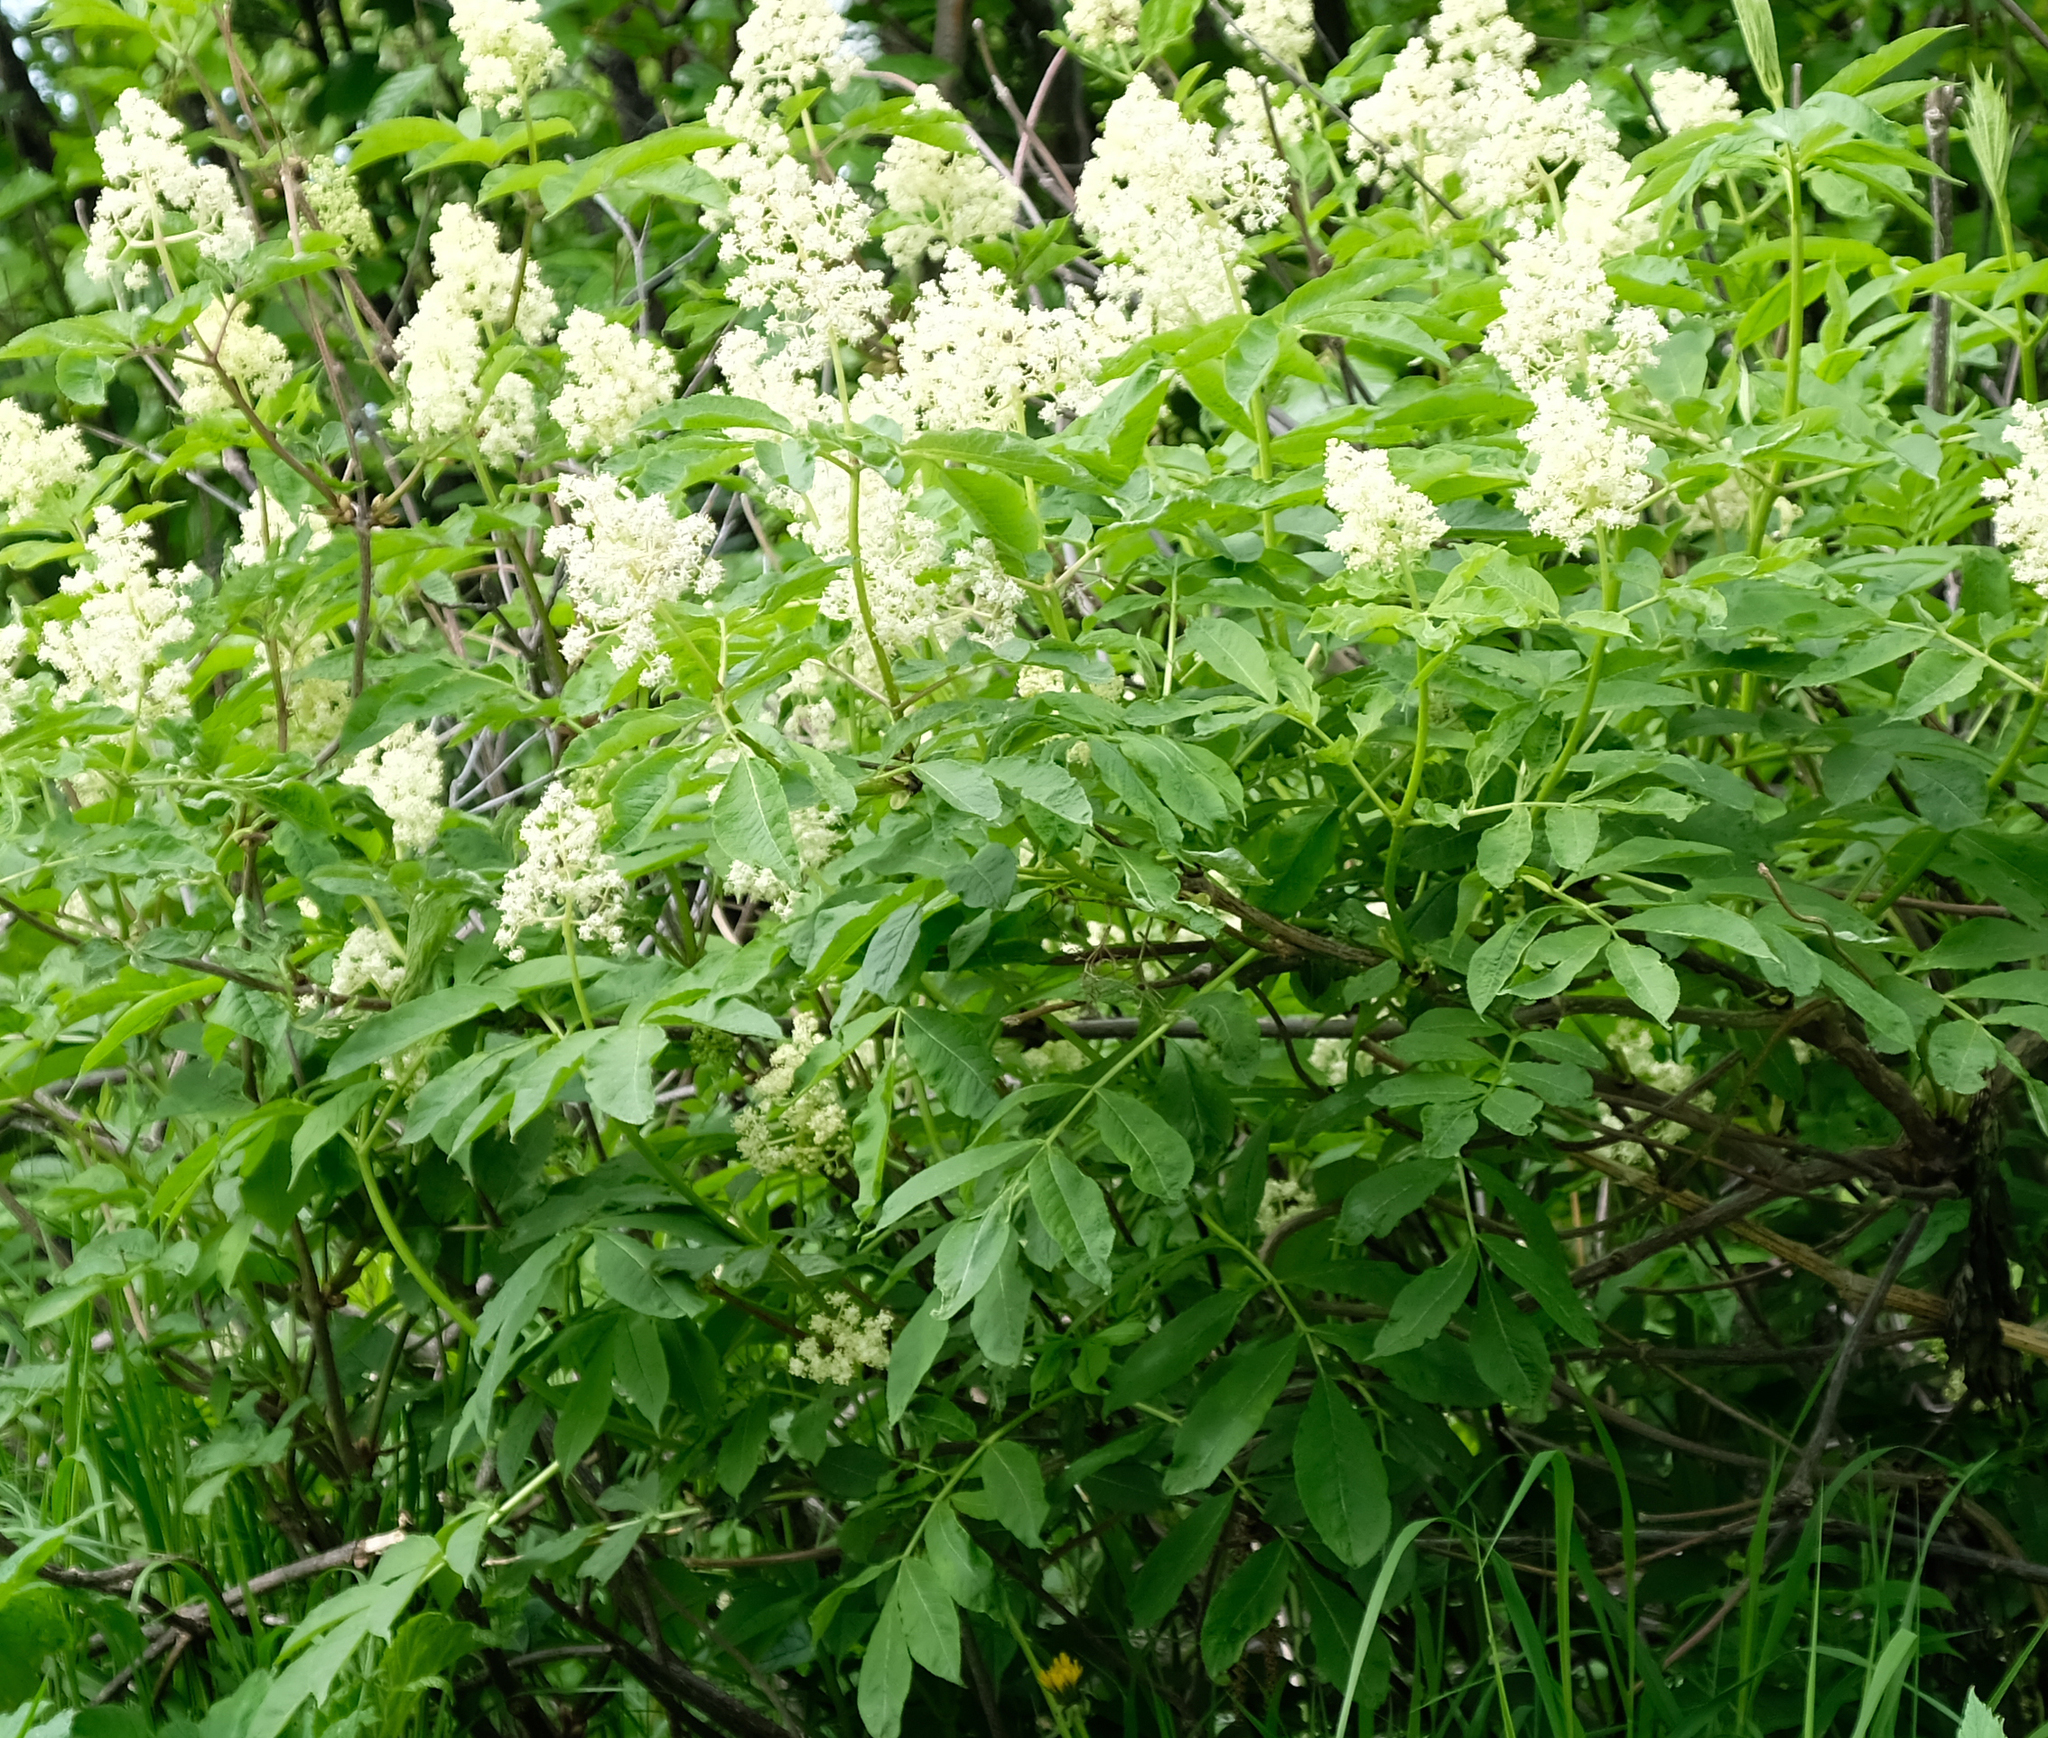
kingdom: Plantae
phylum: Tracheophyta
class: Magnoliopsida
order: Dipsacales
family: Viburnaceae
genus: Sambucus
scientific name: Sambucus racemosa
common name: Red-berried elder
